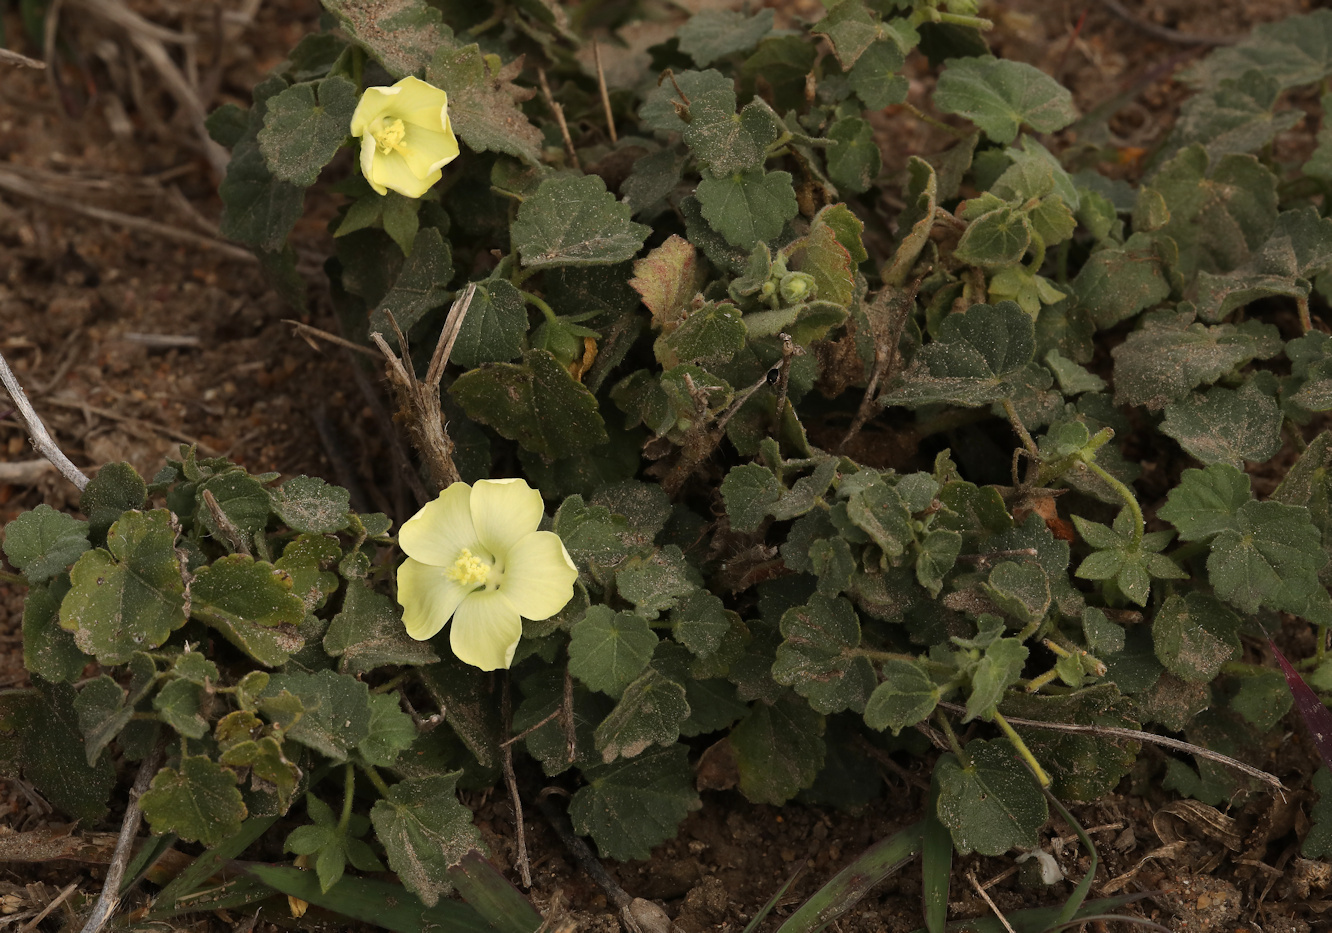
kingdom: Plantae
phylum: Tracheophyta
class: Magnoliopsida
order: Malvales
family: Malvaceae
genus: Pavonia
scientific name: Pavonia burchellii
